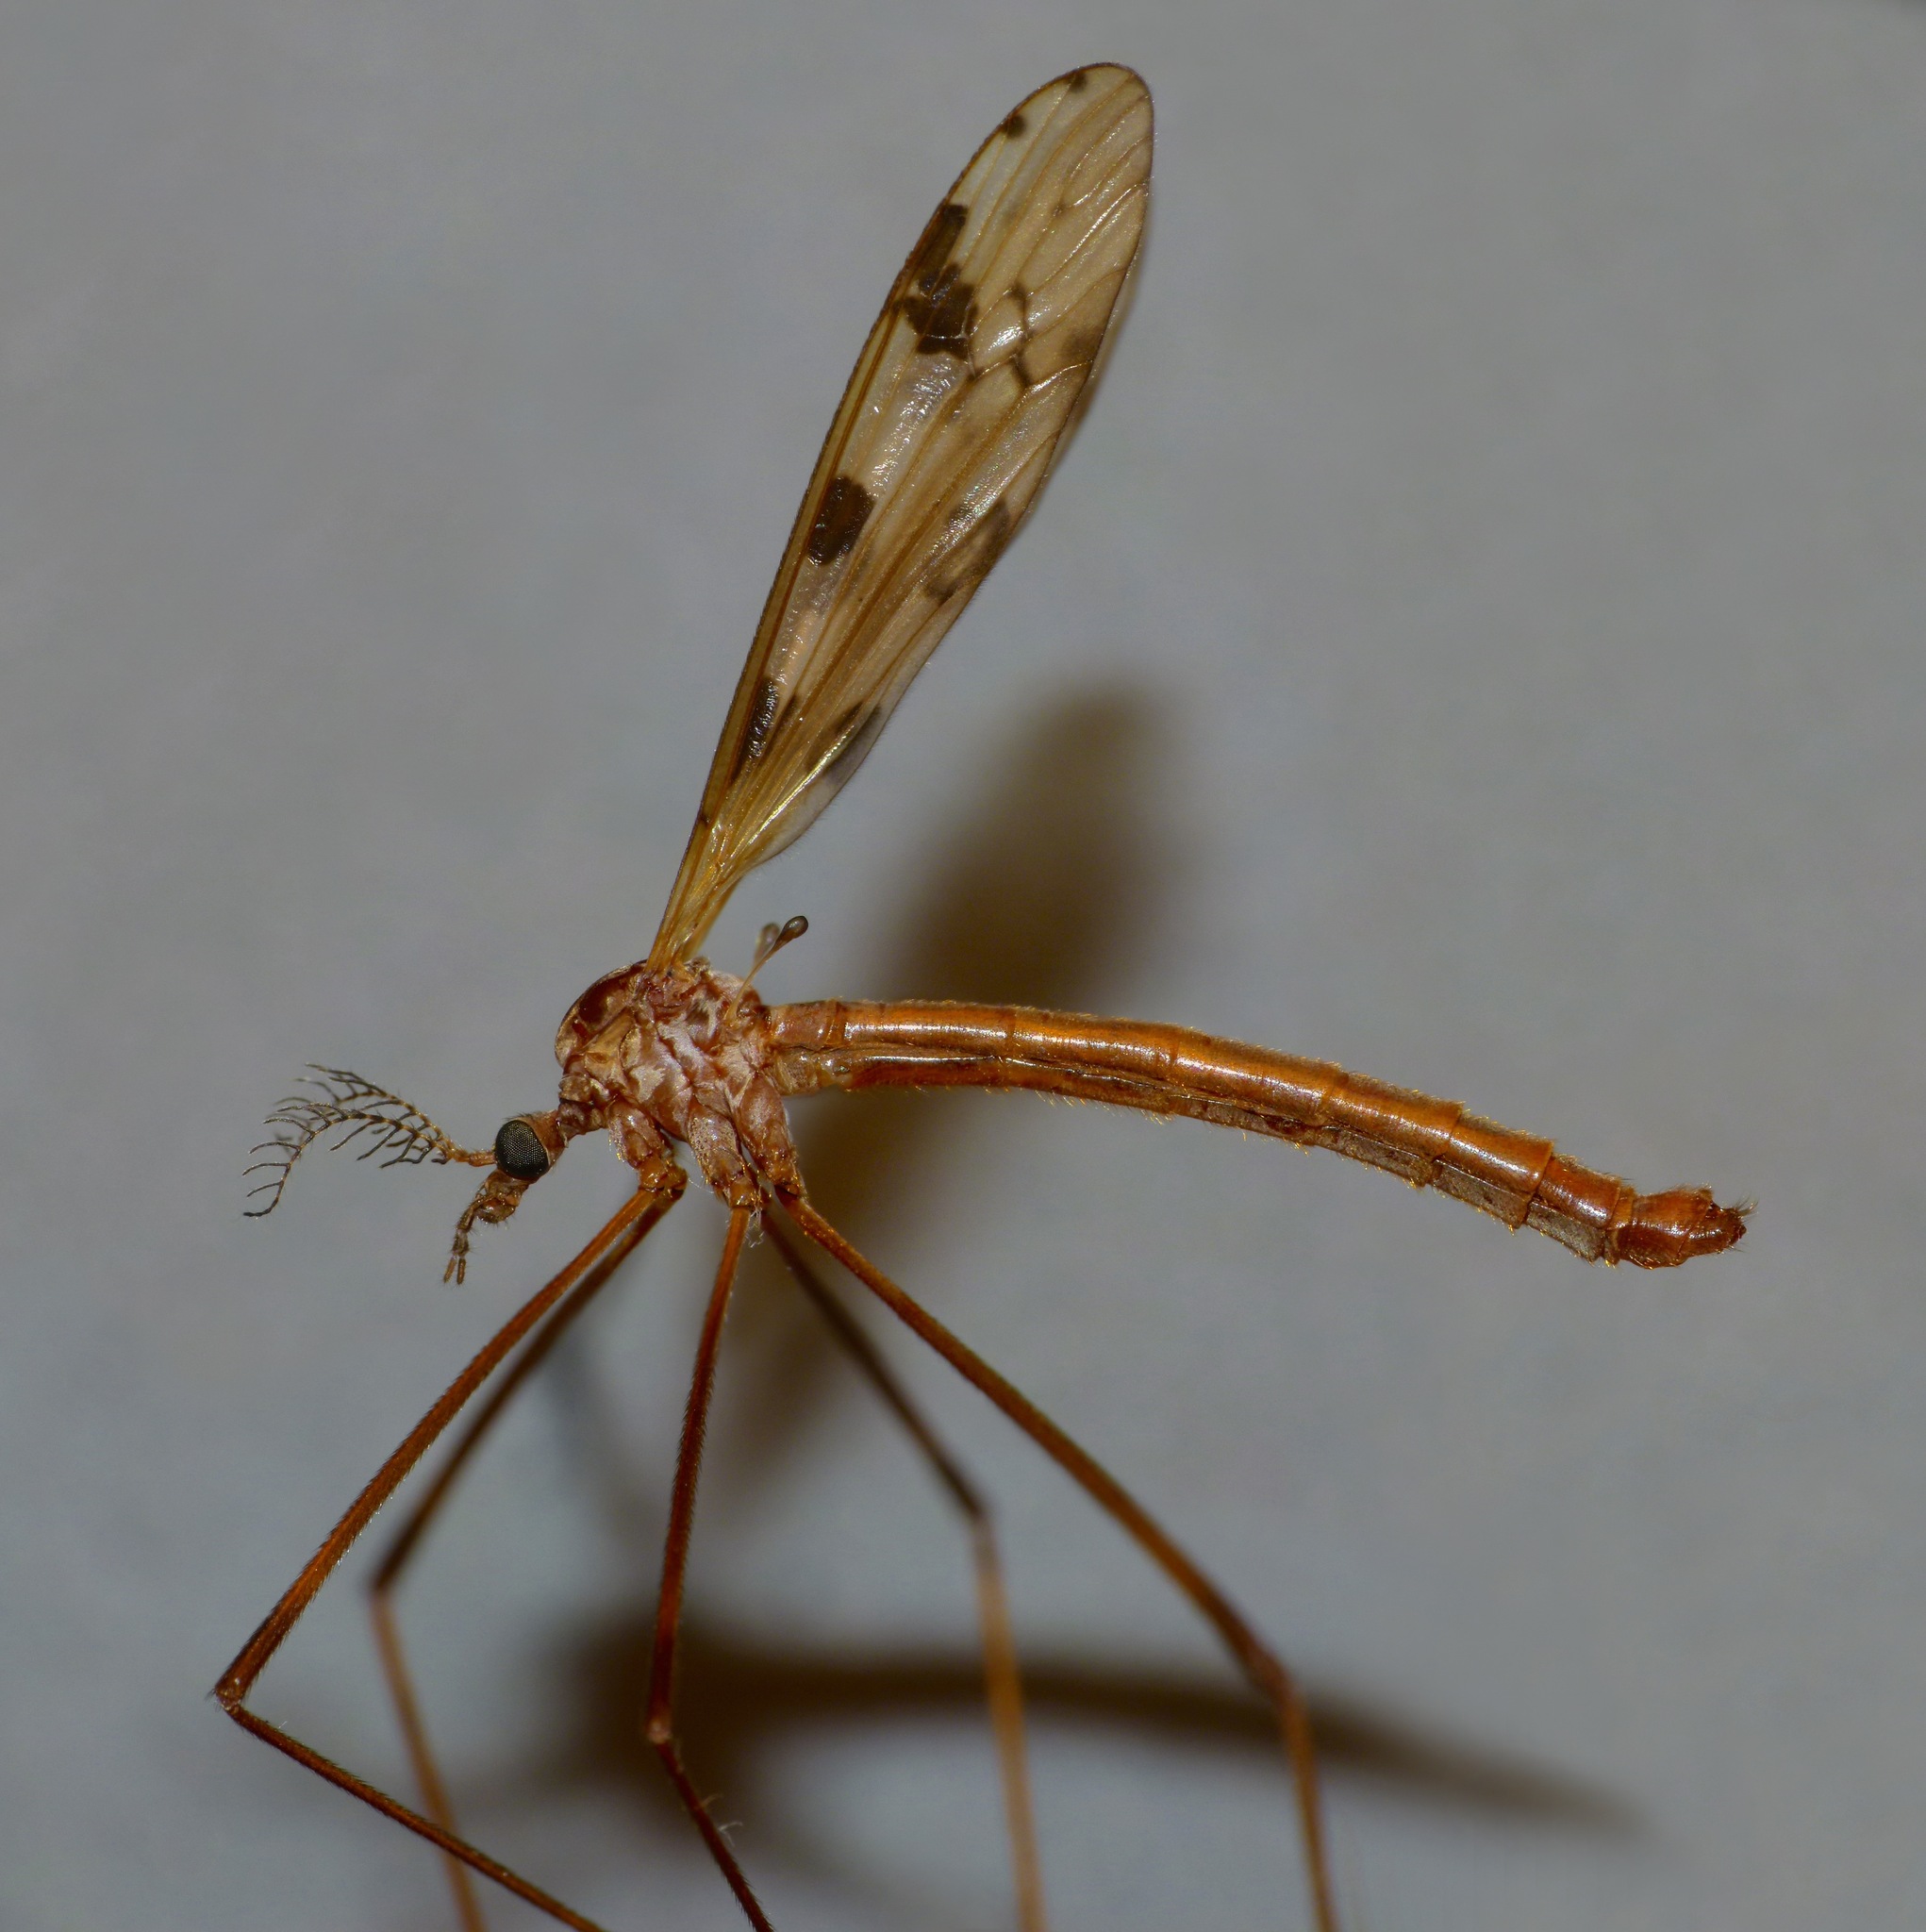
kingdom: Animalia
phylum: Arthropoda
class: Insecta
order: Diptera
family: Limoniidae
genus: Gynoplistia
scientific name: Gynoplistia notata
